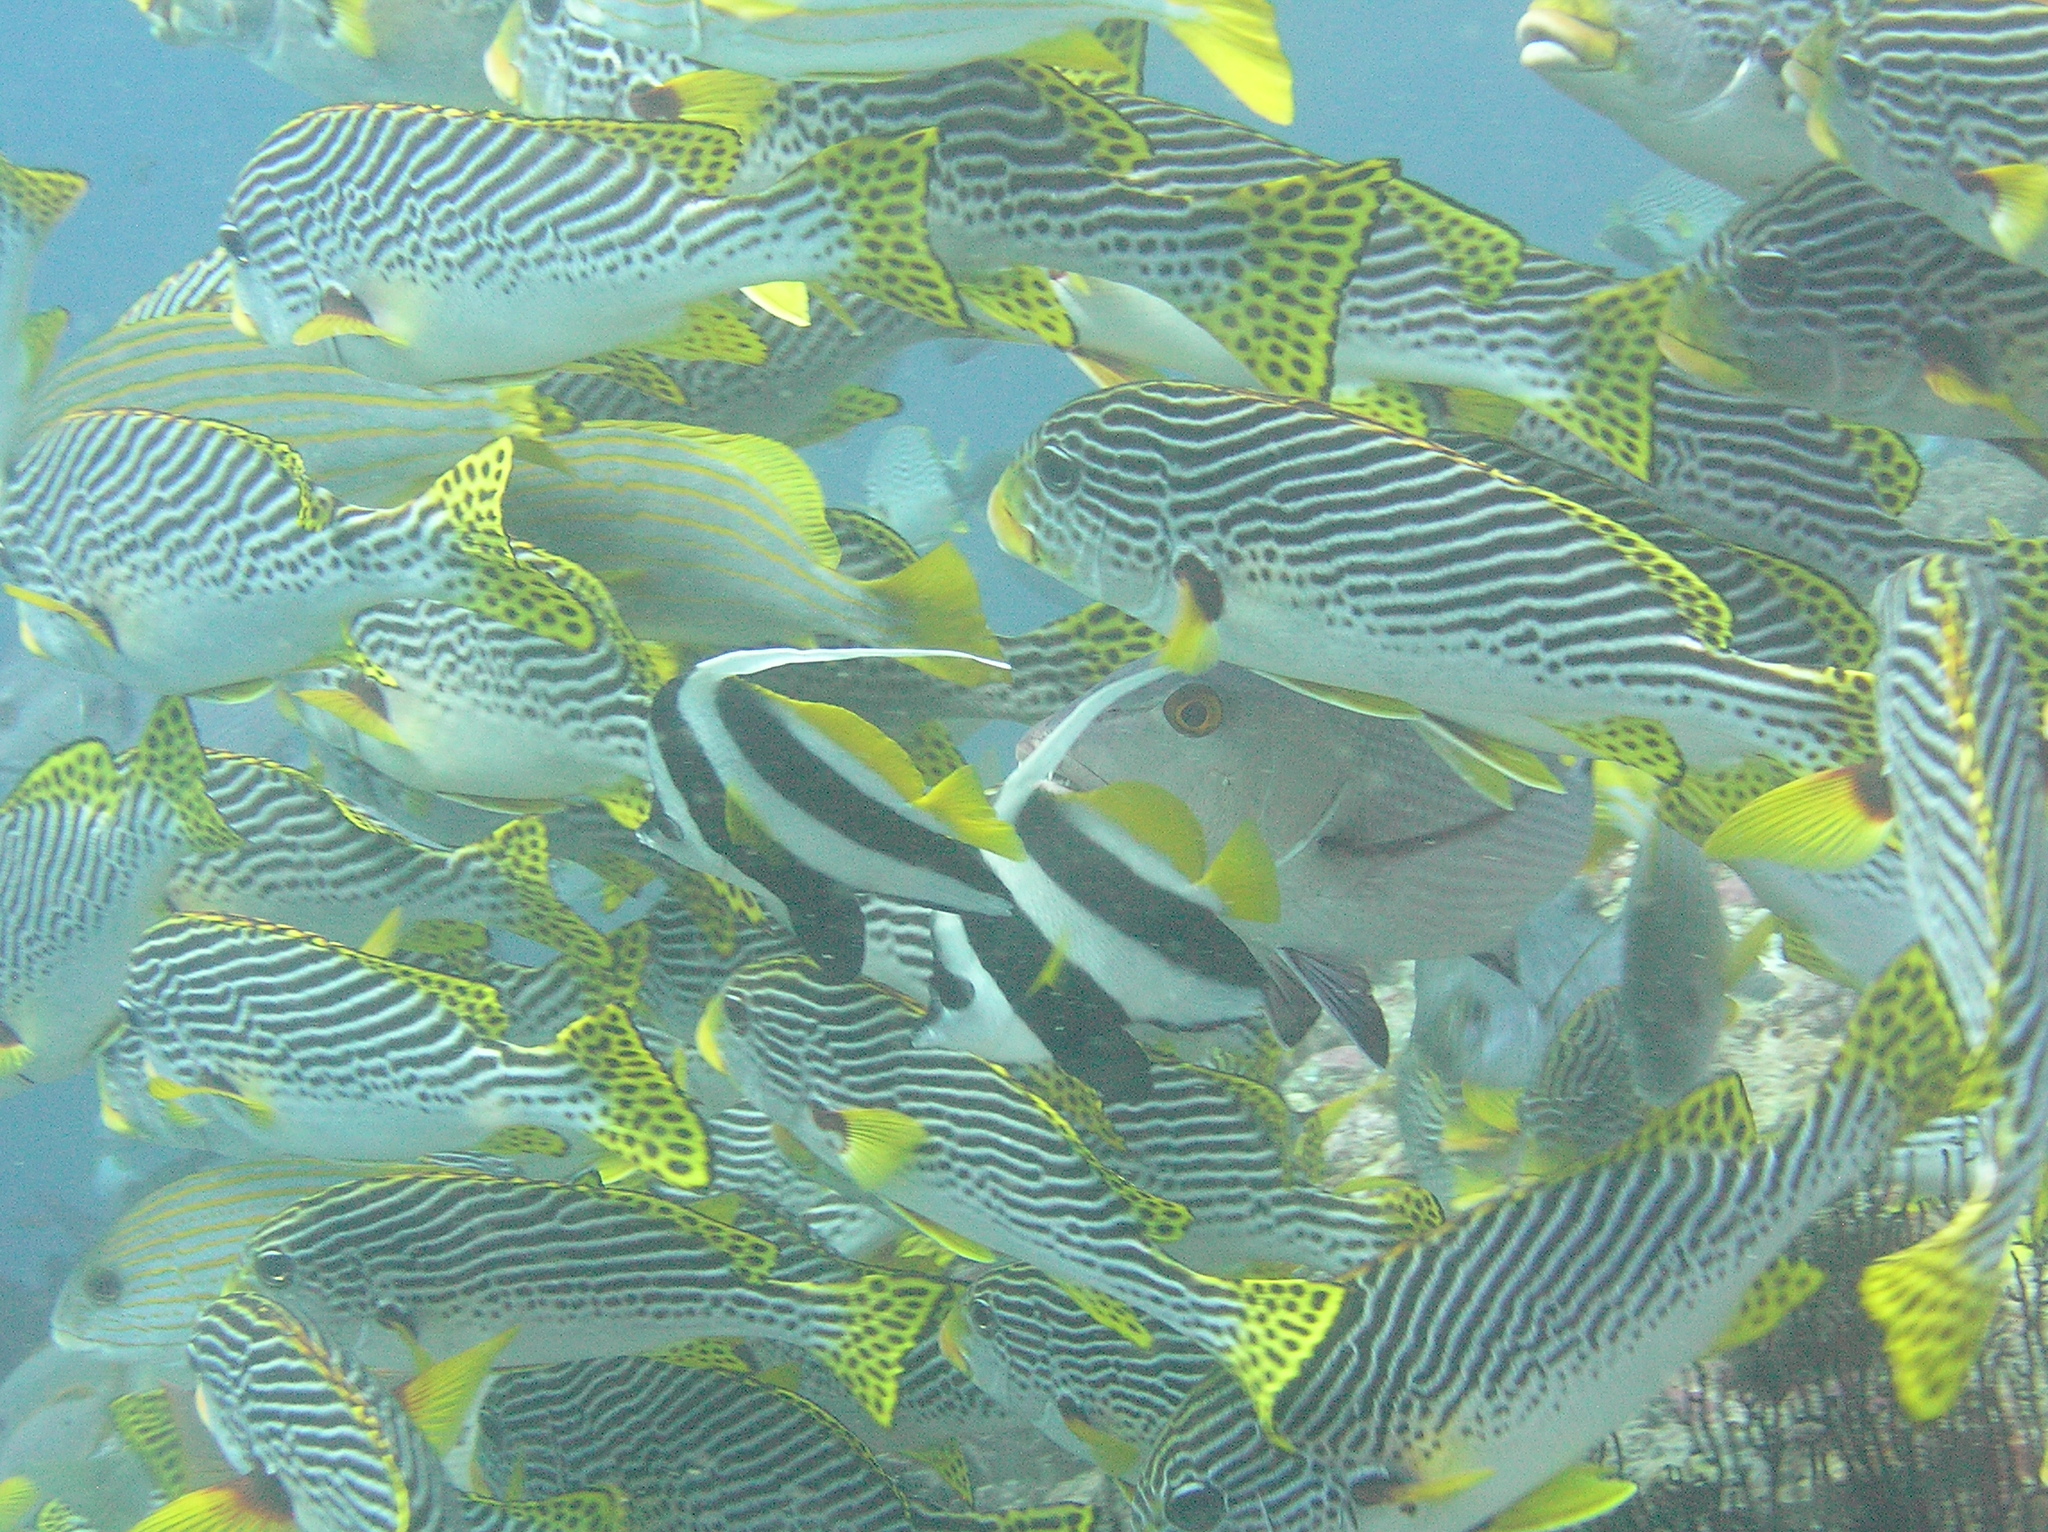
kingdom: Animalia
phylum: Chordata
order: Perciformes
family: Chaetodontidae
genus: Heniochus
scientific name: Heniochus acuminatus
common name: Pennant coralfish
